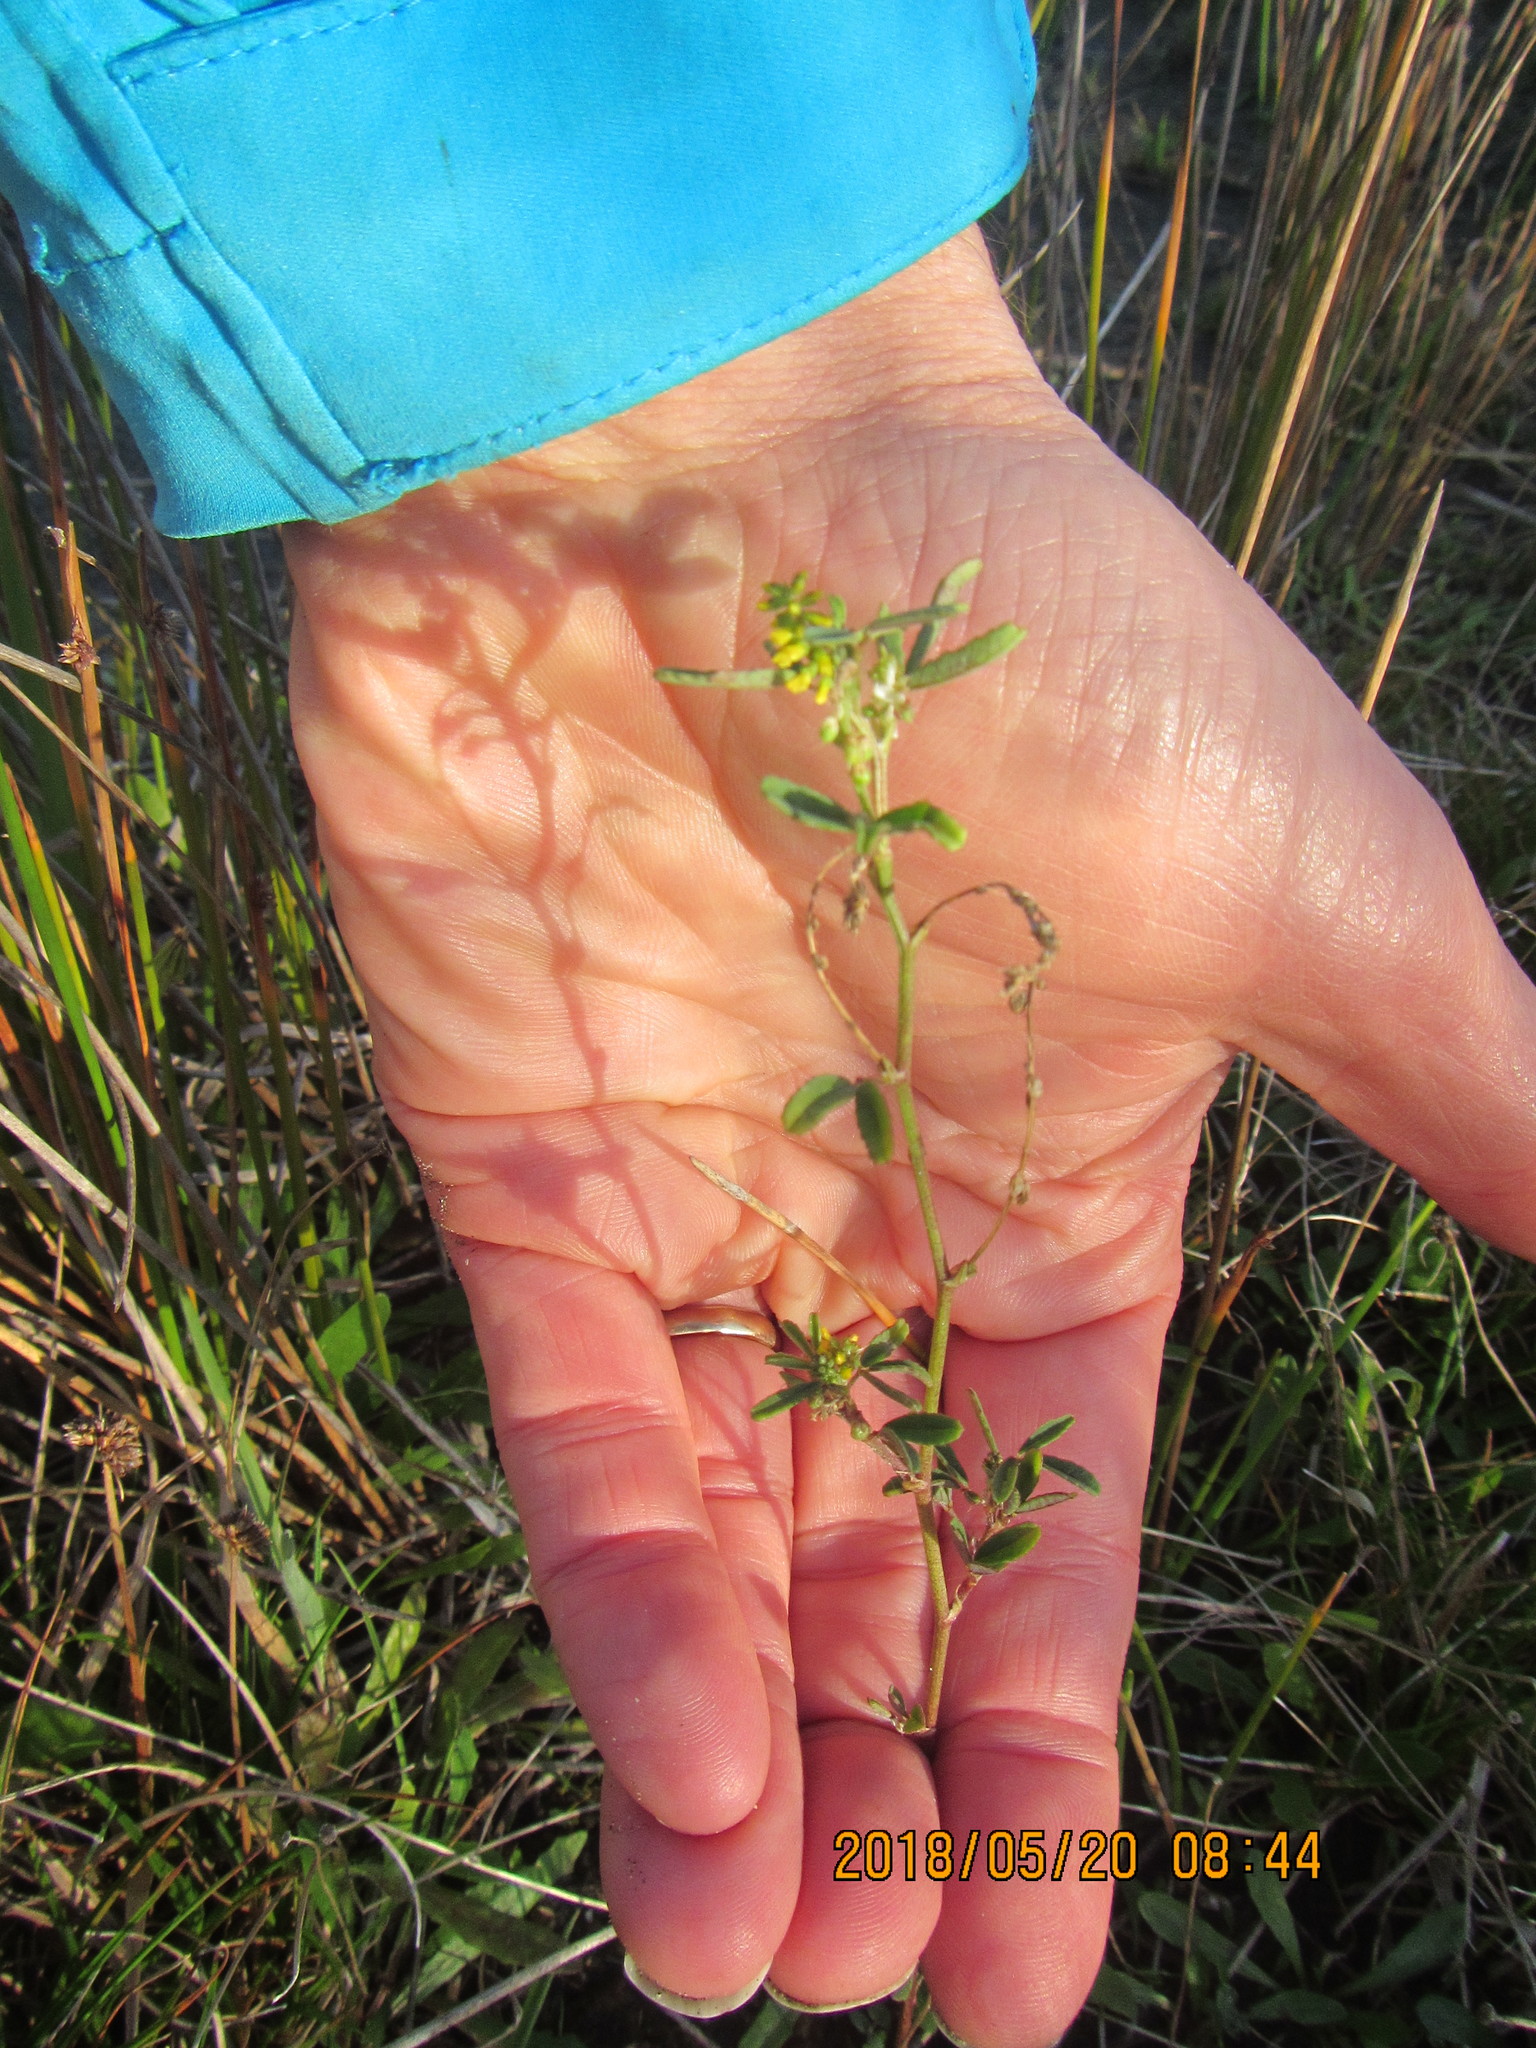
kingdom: Plantae
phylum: Tracheophyta
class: Magnoliopsida
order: Fabales
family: Fabaceae
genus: Melilotus
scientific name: Melilotus indicus
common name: Small melilot
